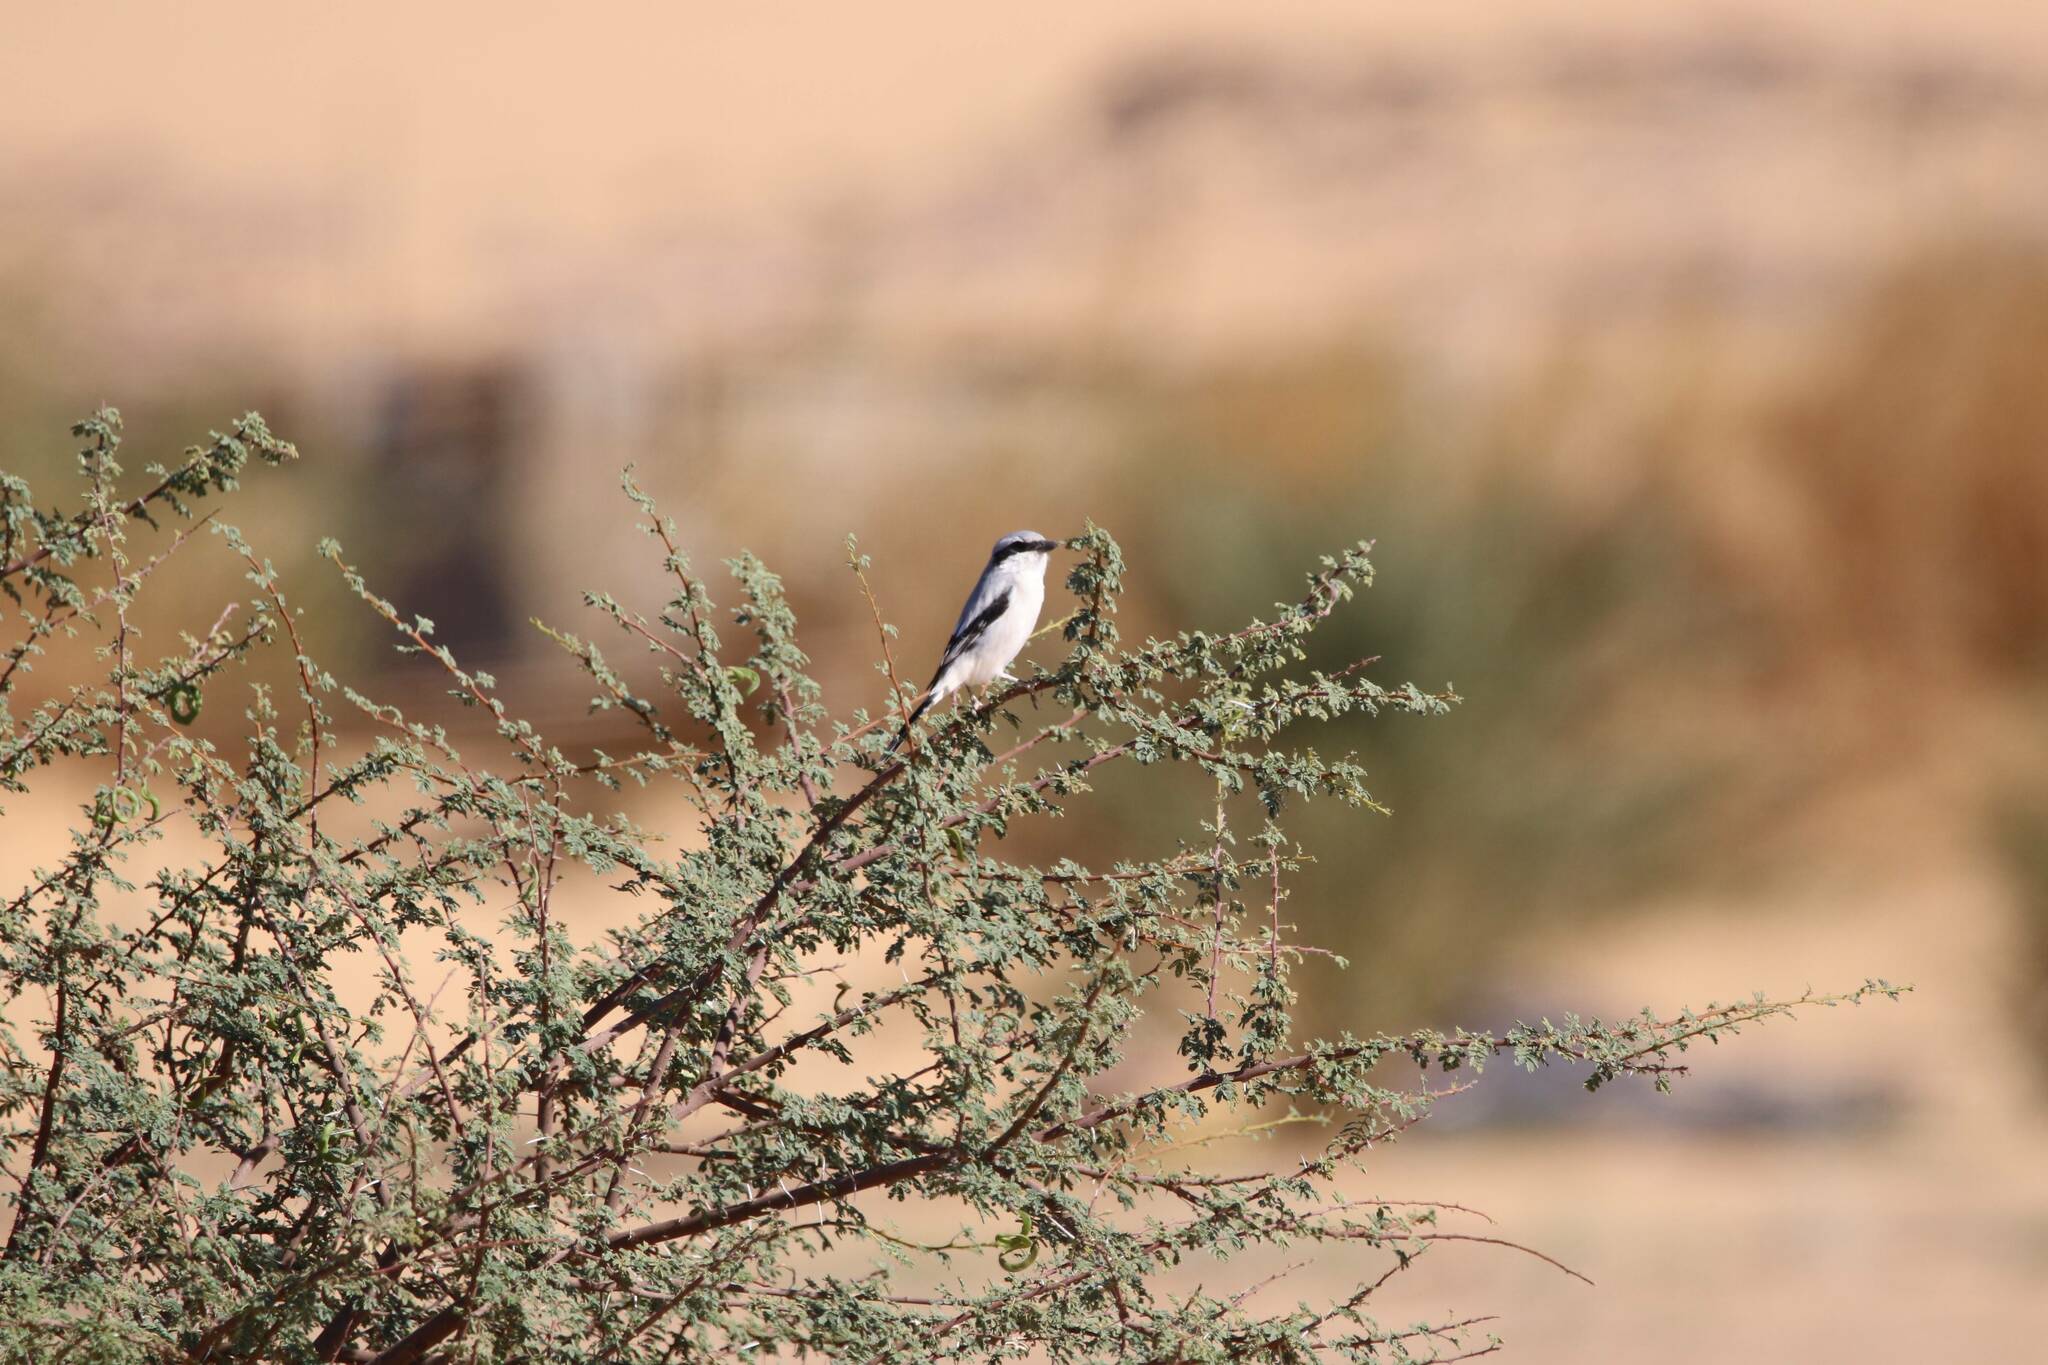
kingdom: Animalia
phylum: Chordata
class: Aves
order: Passeriformes
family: Laniidae
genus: Lanius
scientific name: Lanius excubitor
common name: Great grey shrike
